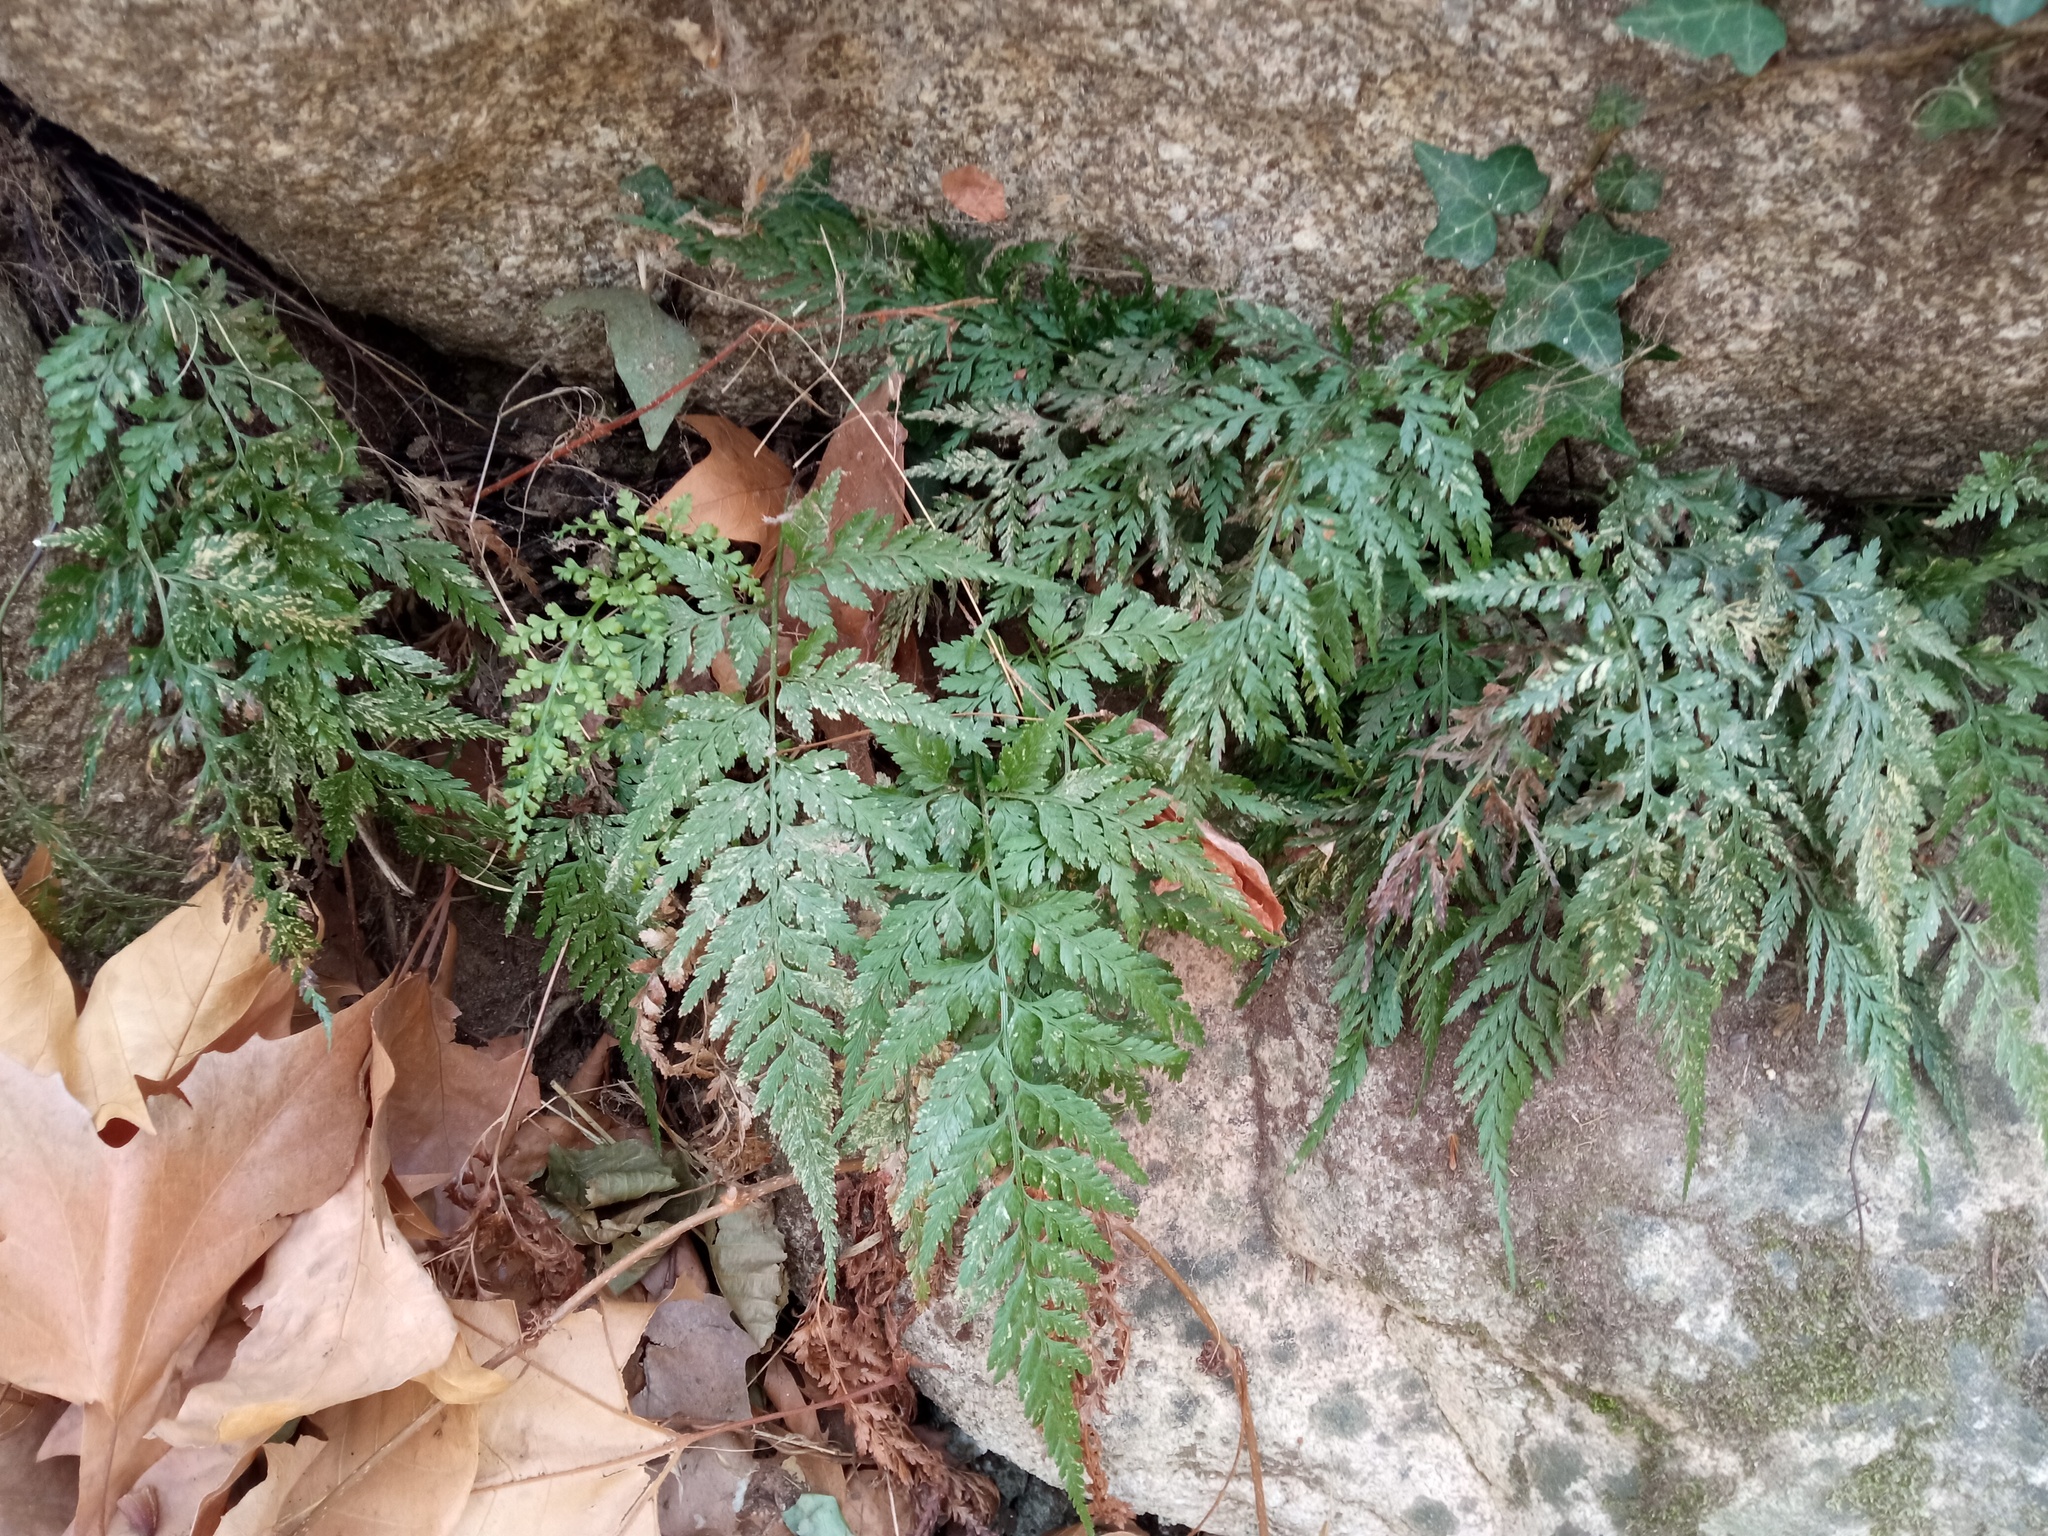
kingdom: Plantae
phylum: Tracheophyta
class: Polypodiopsida
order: Polypodiales
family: Aspleniaceae
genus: Asplenium
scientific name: Asplenium onopteris
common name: Irish spleenwort
